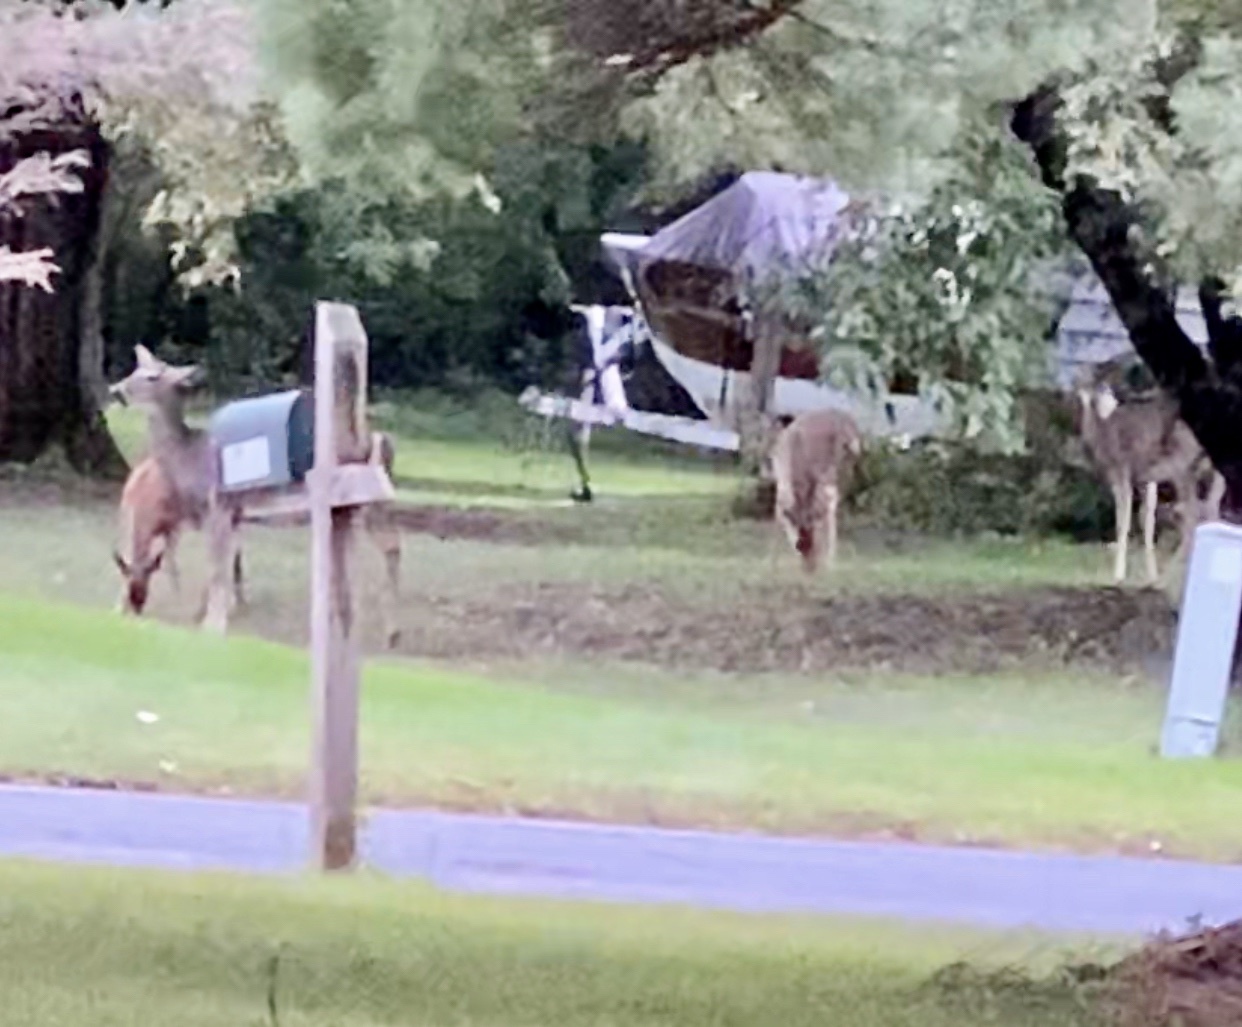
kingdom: Animalia
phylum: Chordata
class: Mammalia
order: Artiodactyla
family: Cervidae
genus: Odocoileus
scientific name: Odocoileus virginianus
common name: White-tailed deer
